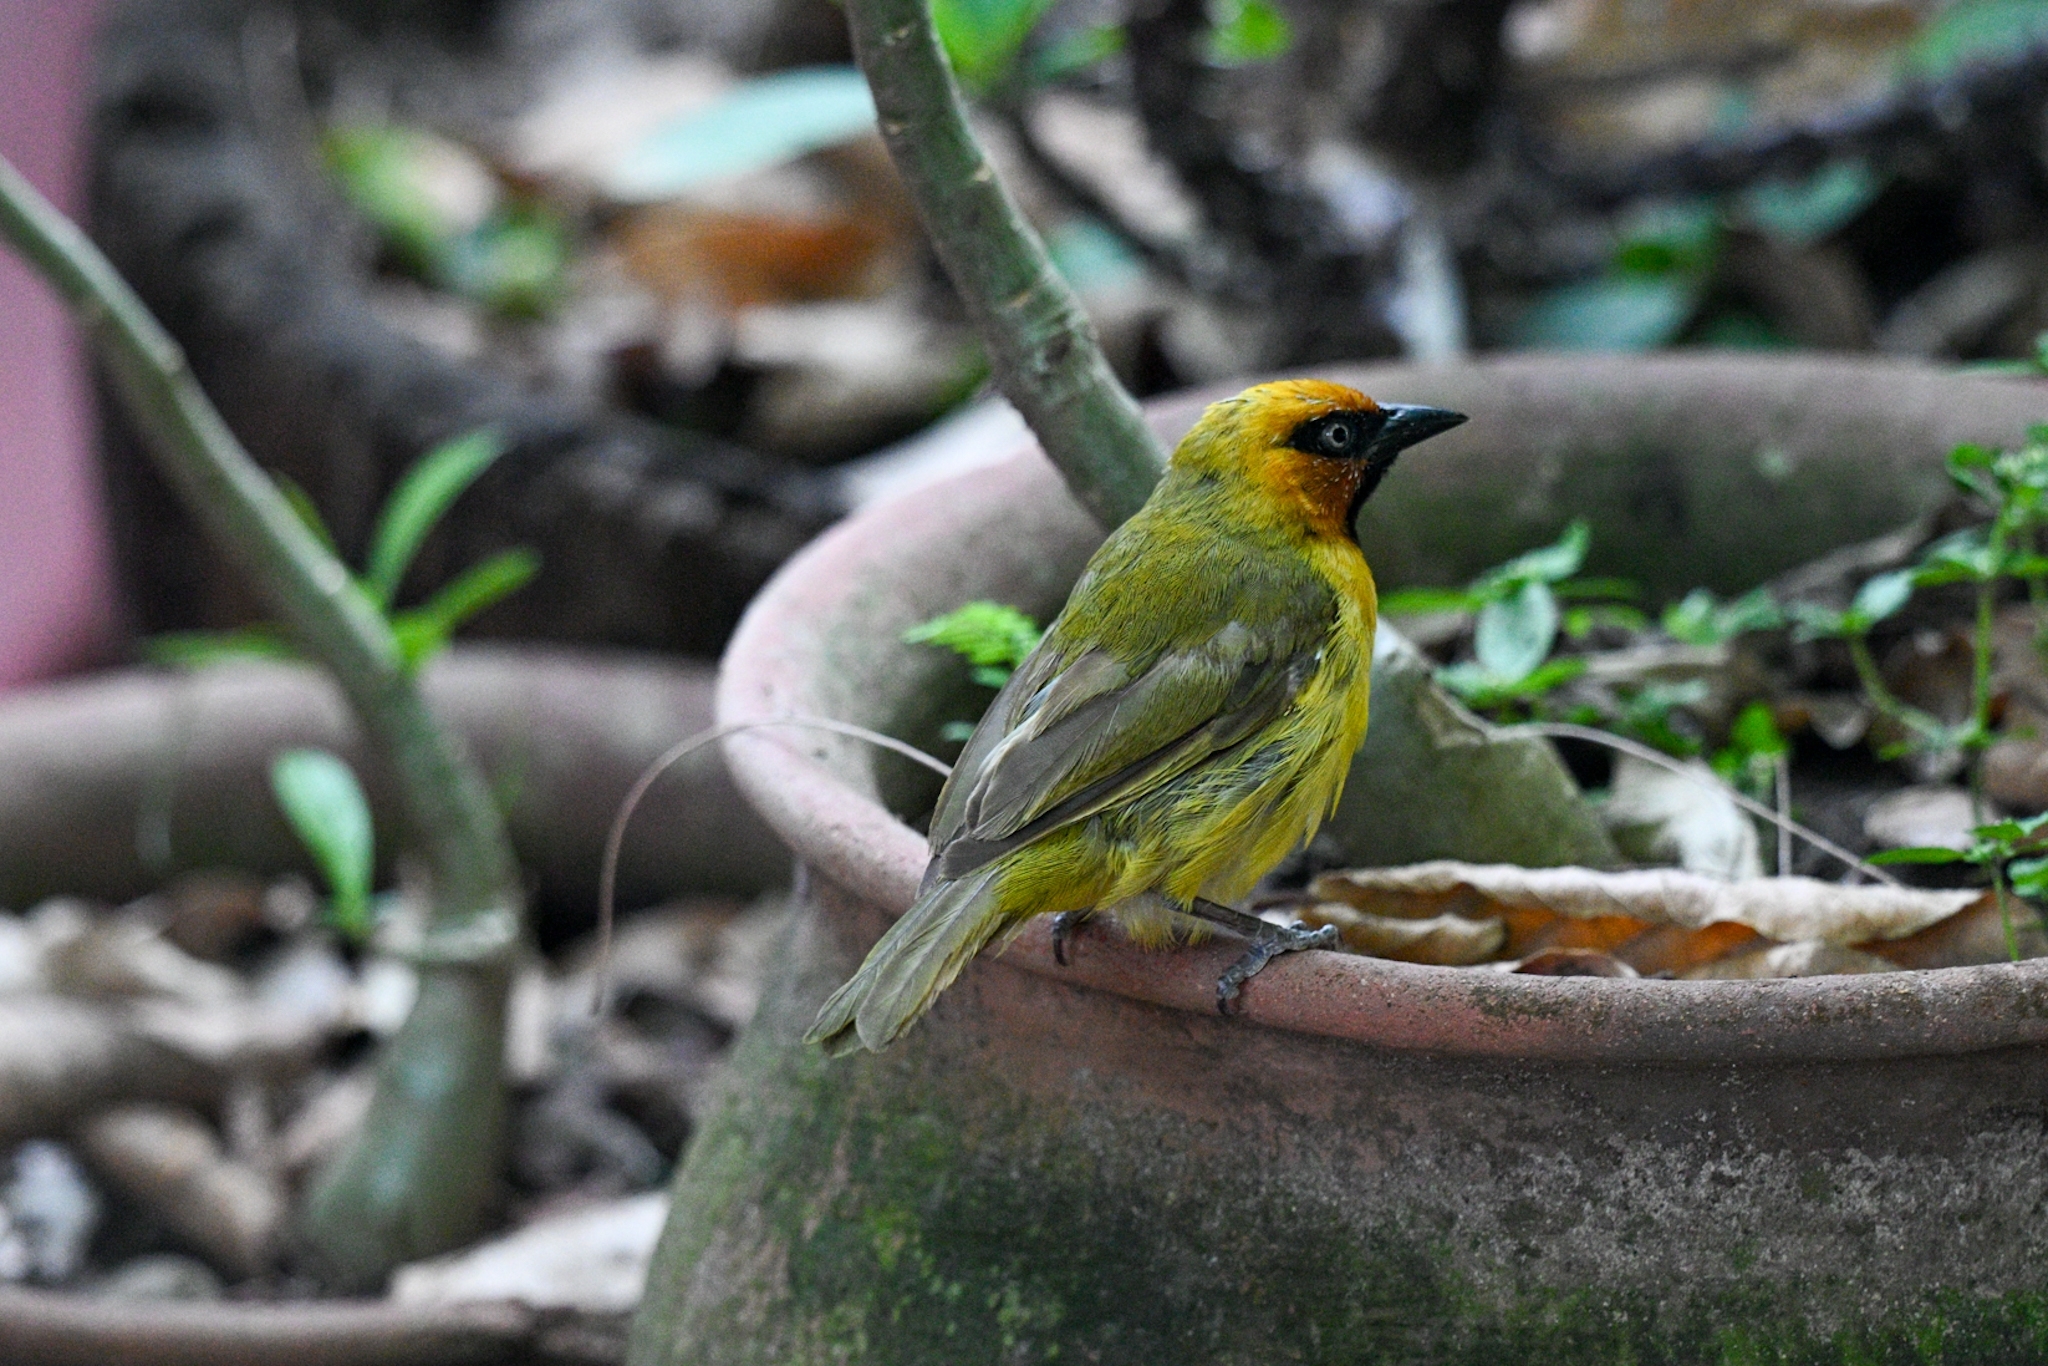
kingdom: Animalia
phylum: Chordata
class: Aves
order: Passeriformes
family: Ploceidae
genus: Ploceus
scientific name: Ploceus brachypterus
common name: Olive-naped weaver
